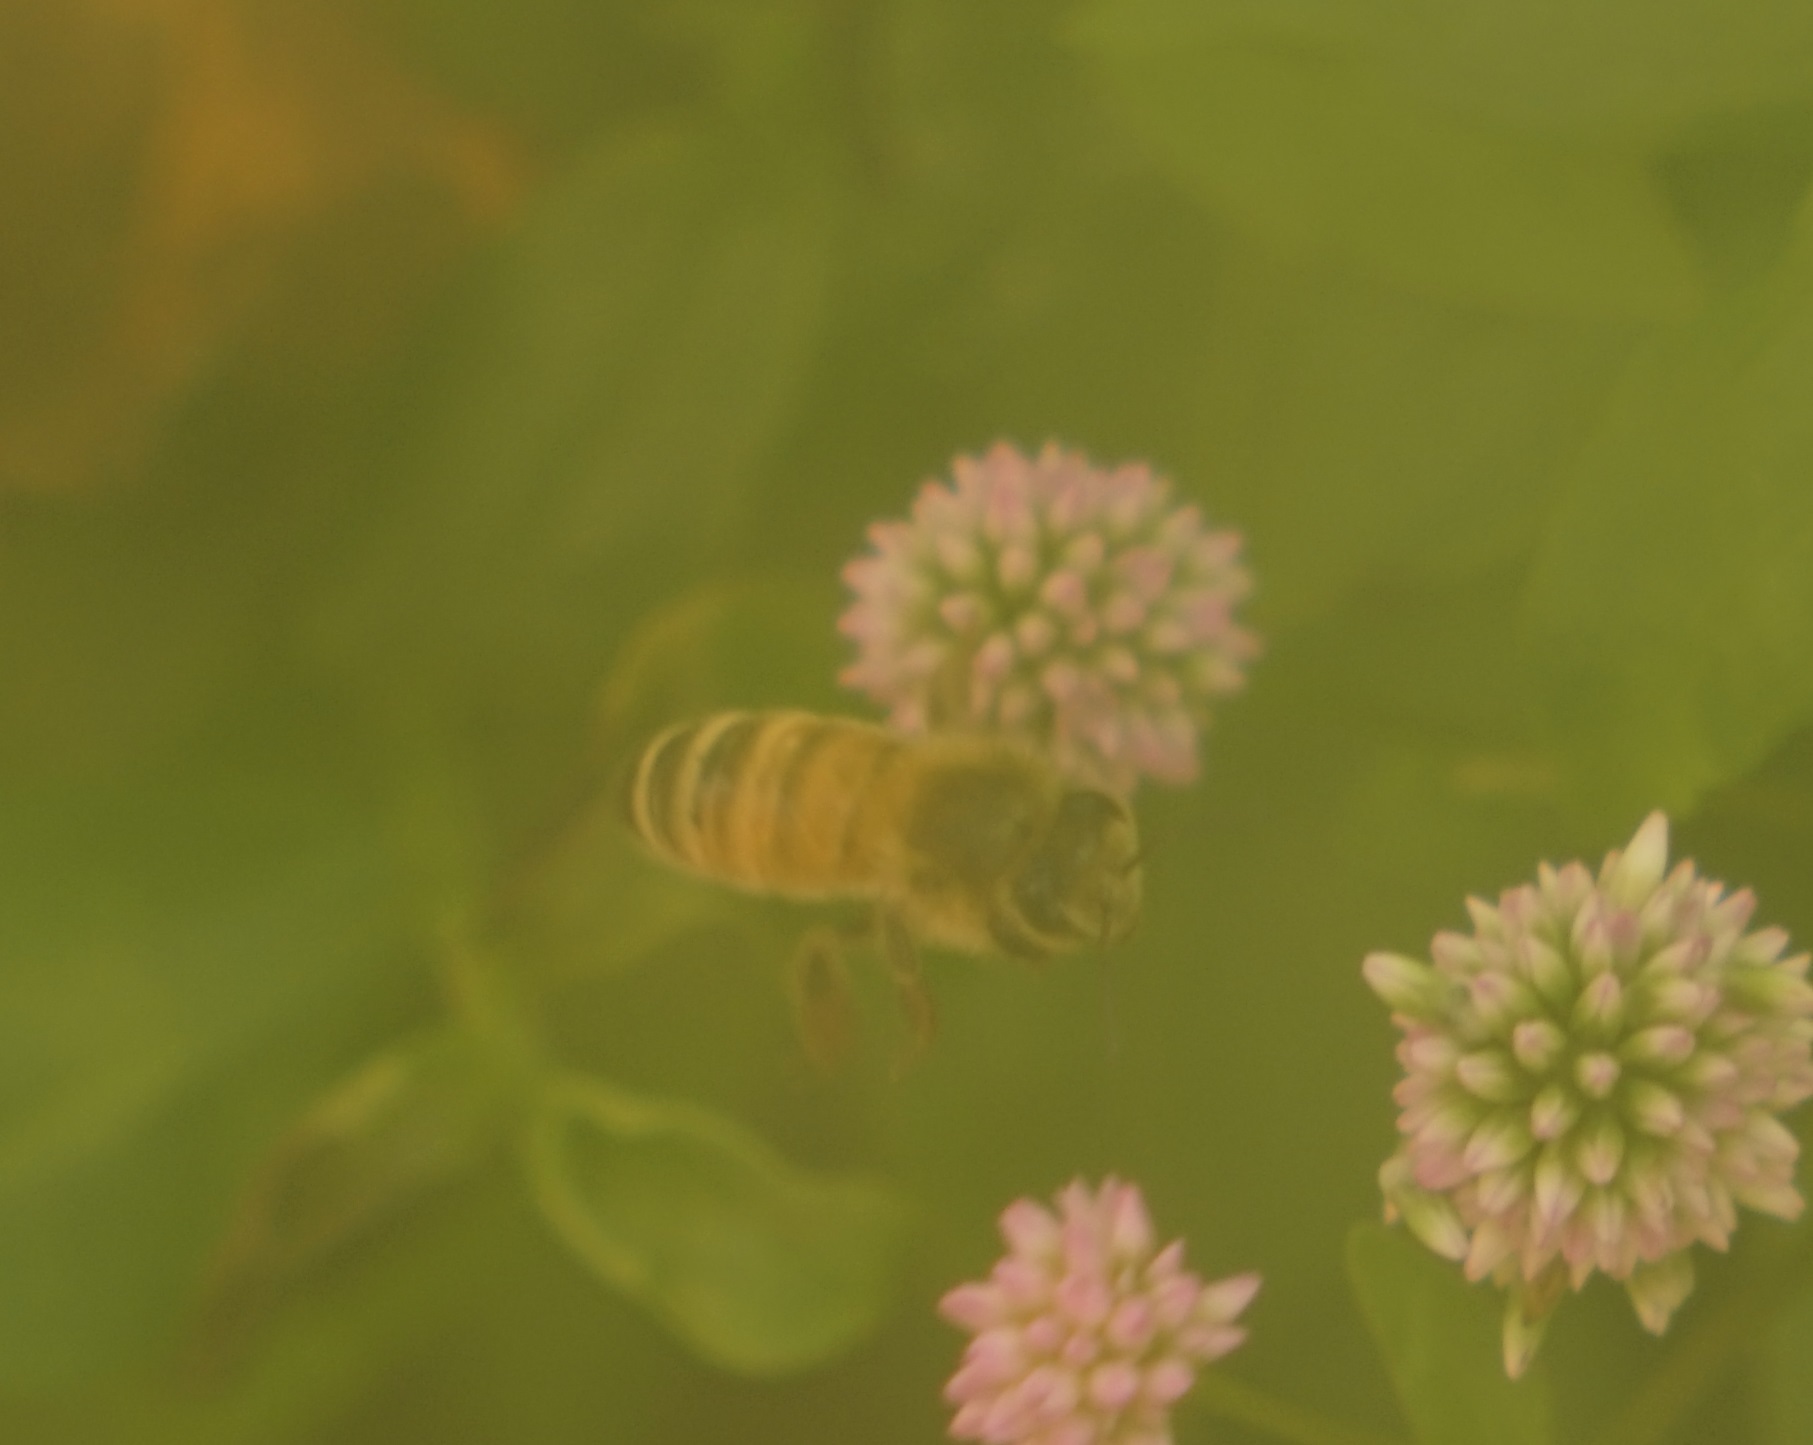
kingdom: Animalia
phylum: Arthropoda
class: Insecta
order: Hymenoptera
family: Apidae
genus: Apis
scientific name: Apis mellifera
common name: Honey bee
